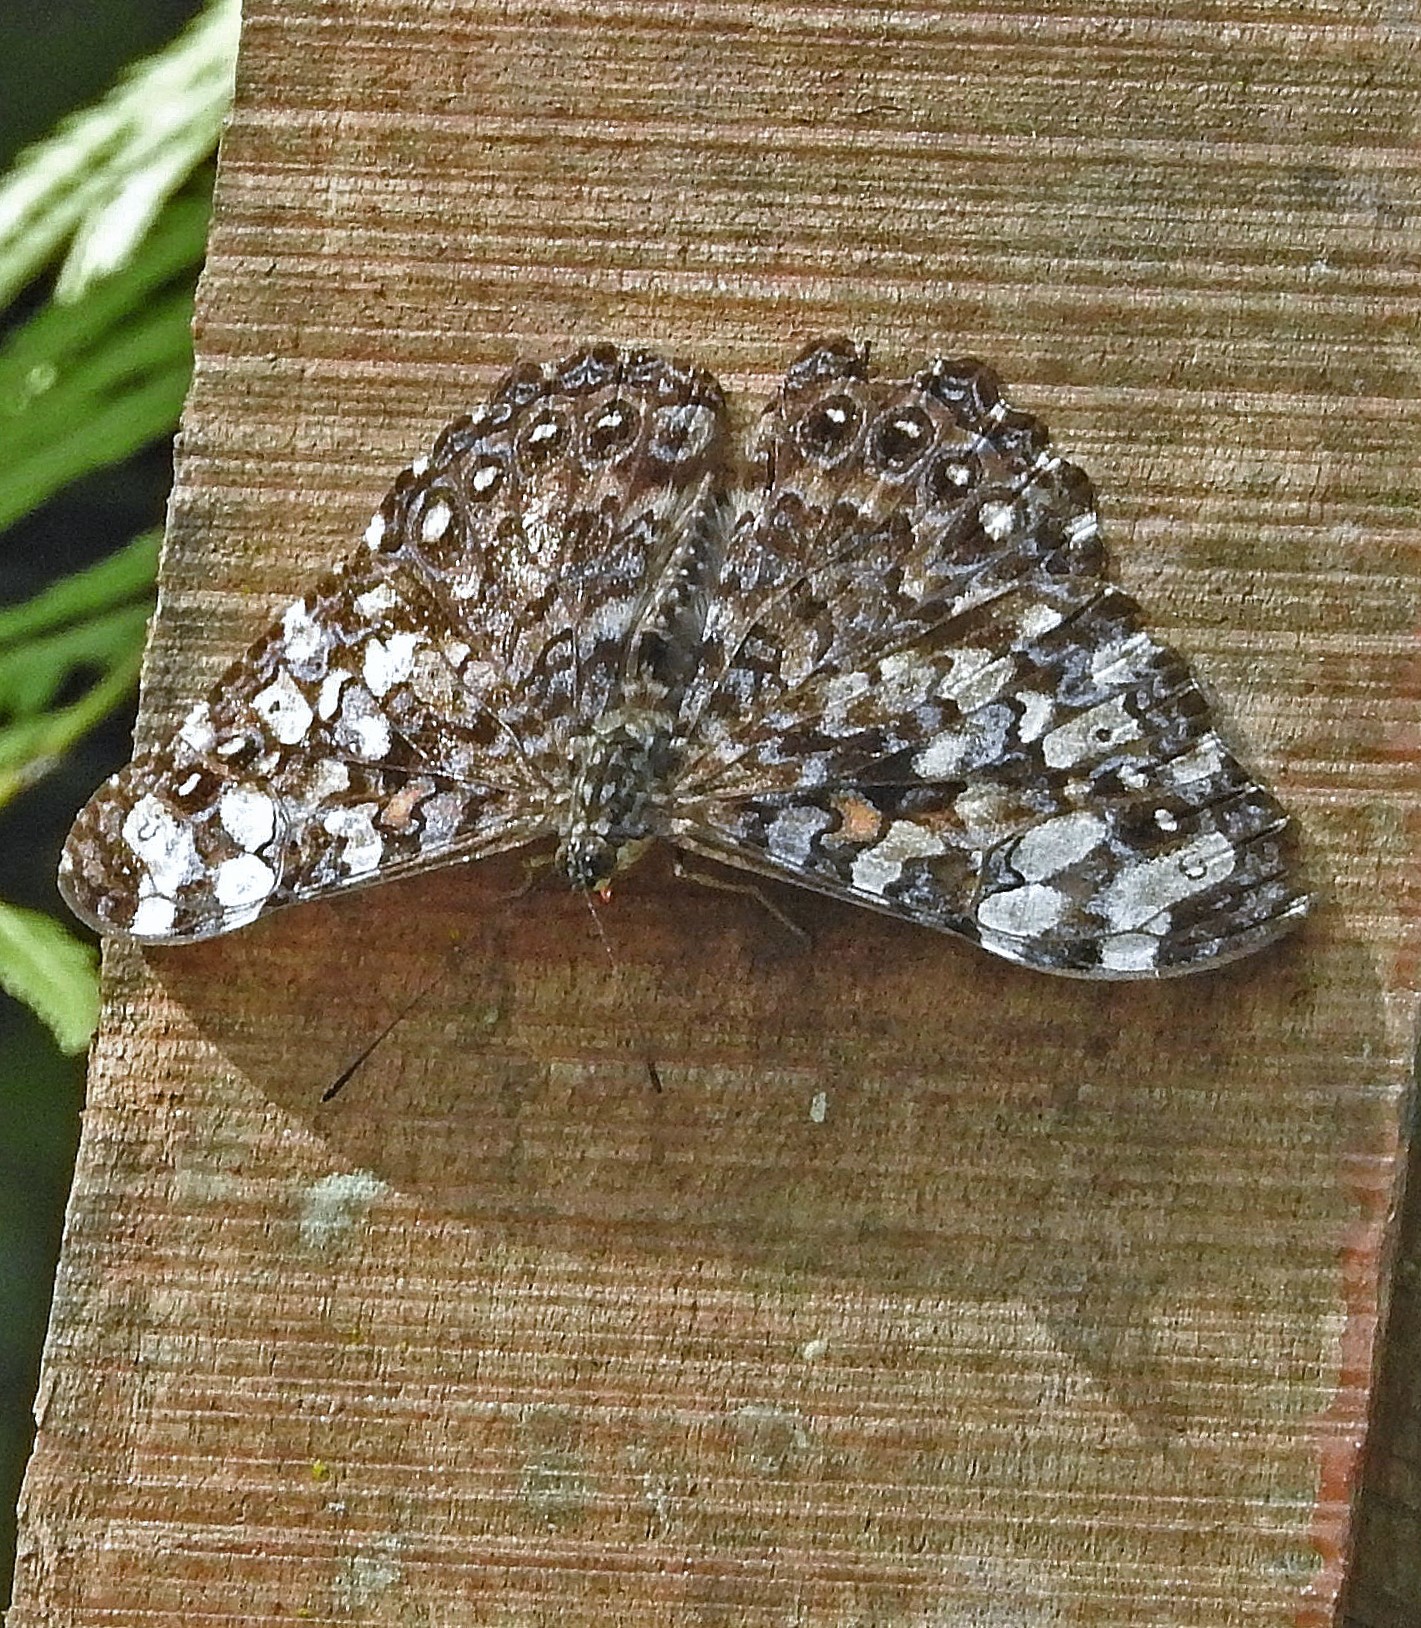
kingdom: Animalia
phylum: Arthropoda
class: Insecta
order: Lepidoptera
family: Nymphalidae
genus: Hamadryas
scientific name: Hamadryas epinome
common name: Epinome cracker
